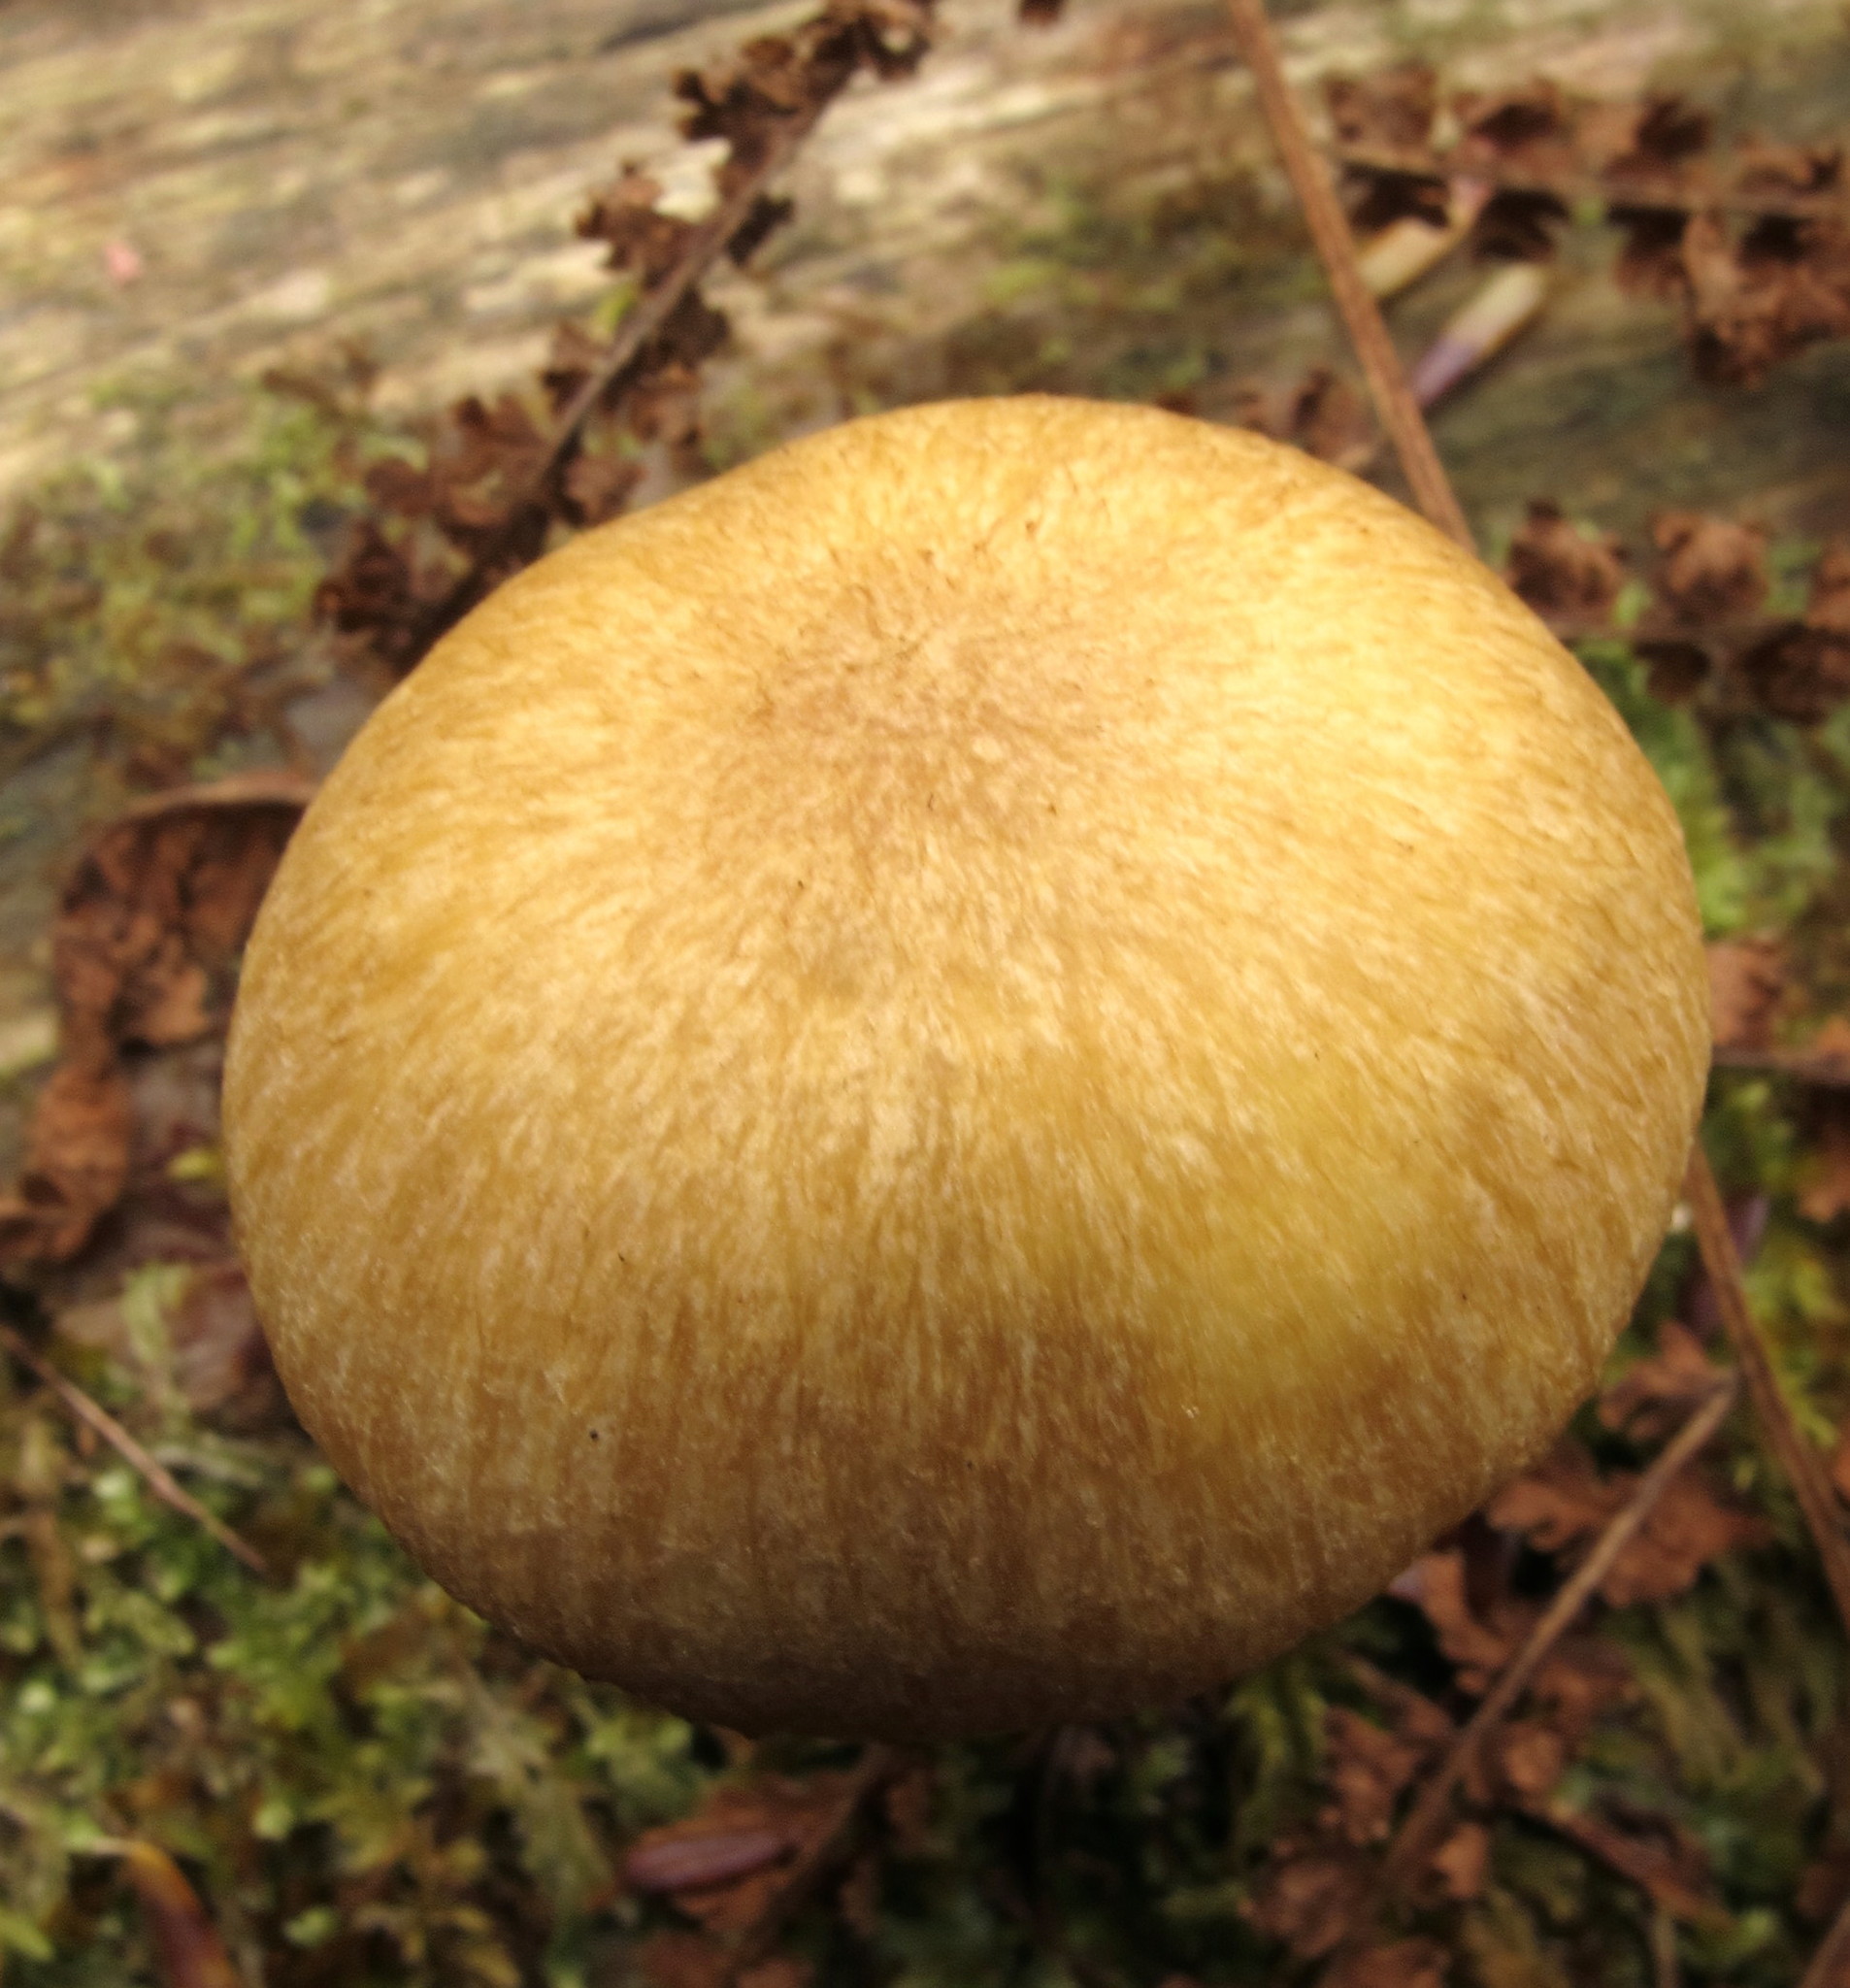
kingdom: Fungi
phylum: Basidiomycota
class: Agaricomycetes
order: Agaricales
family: Tricholomataceae
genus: Tricholomopsis
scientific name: Tricholomopsis sulfureoides
